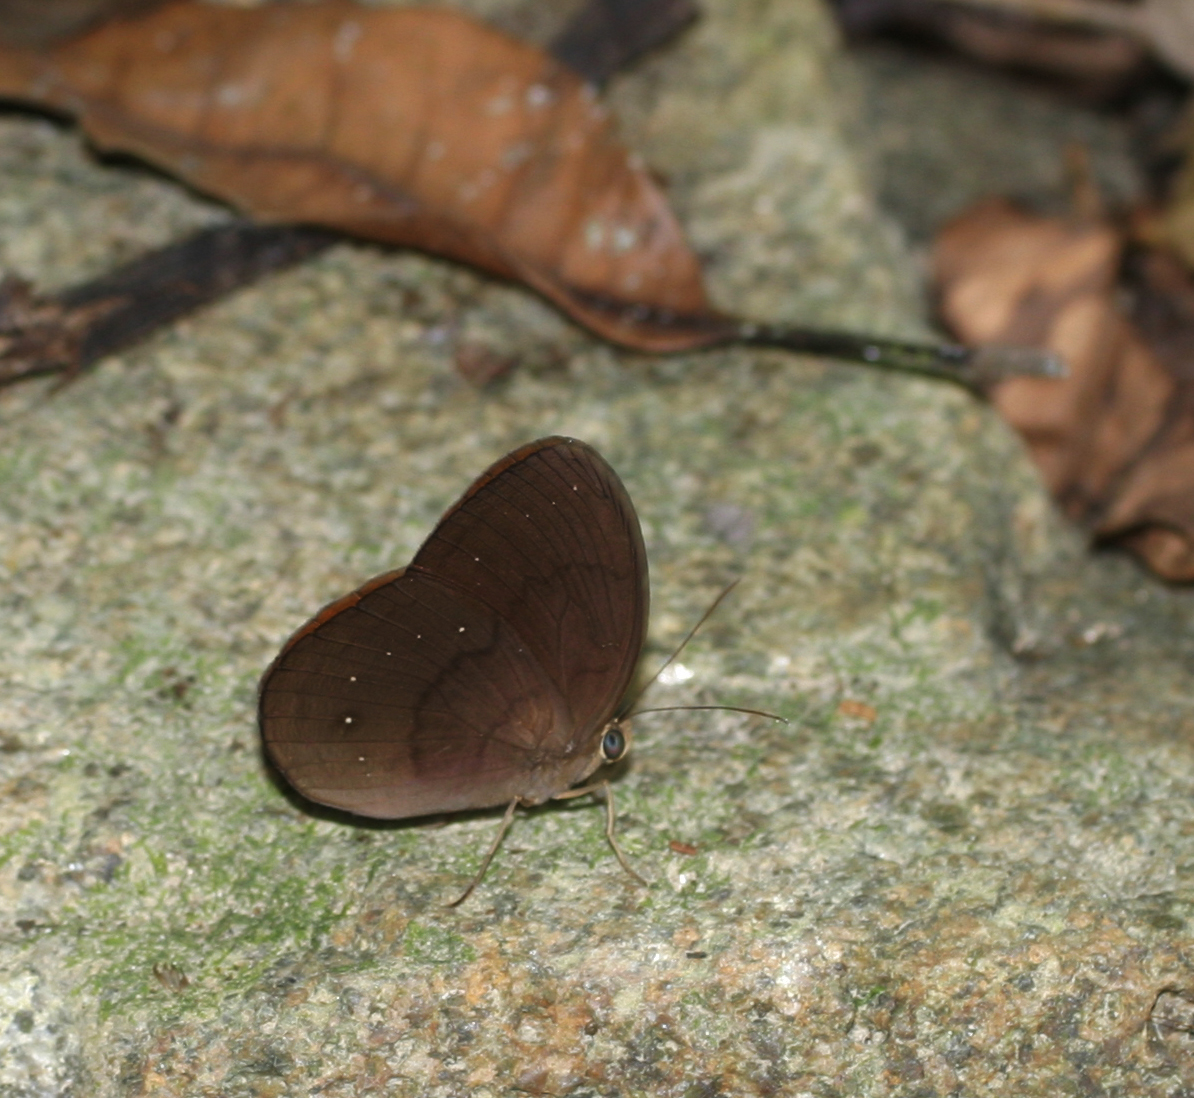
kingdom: Animalia
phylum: Arthropoda
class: Insecta
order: Lepidoptera
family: Nymphalidae
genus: Faunis
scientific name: Faunis canens
